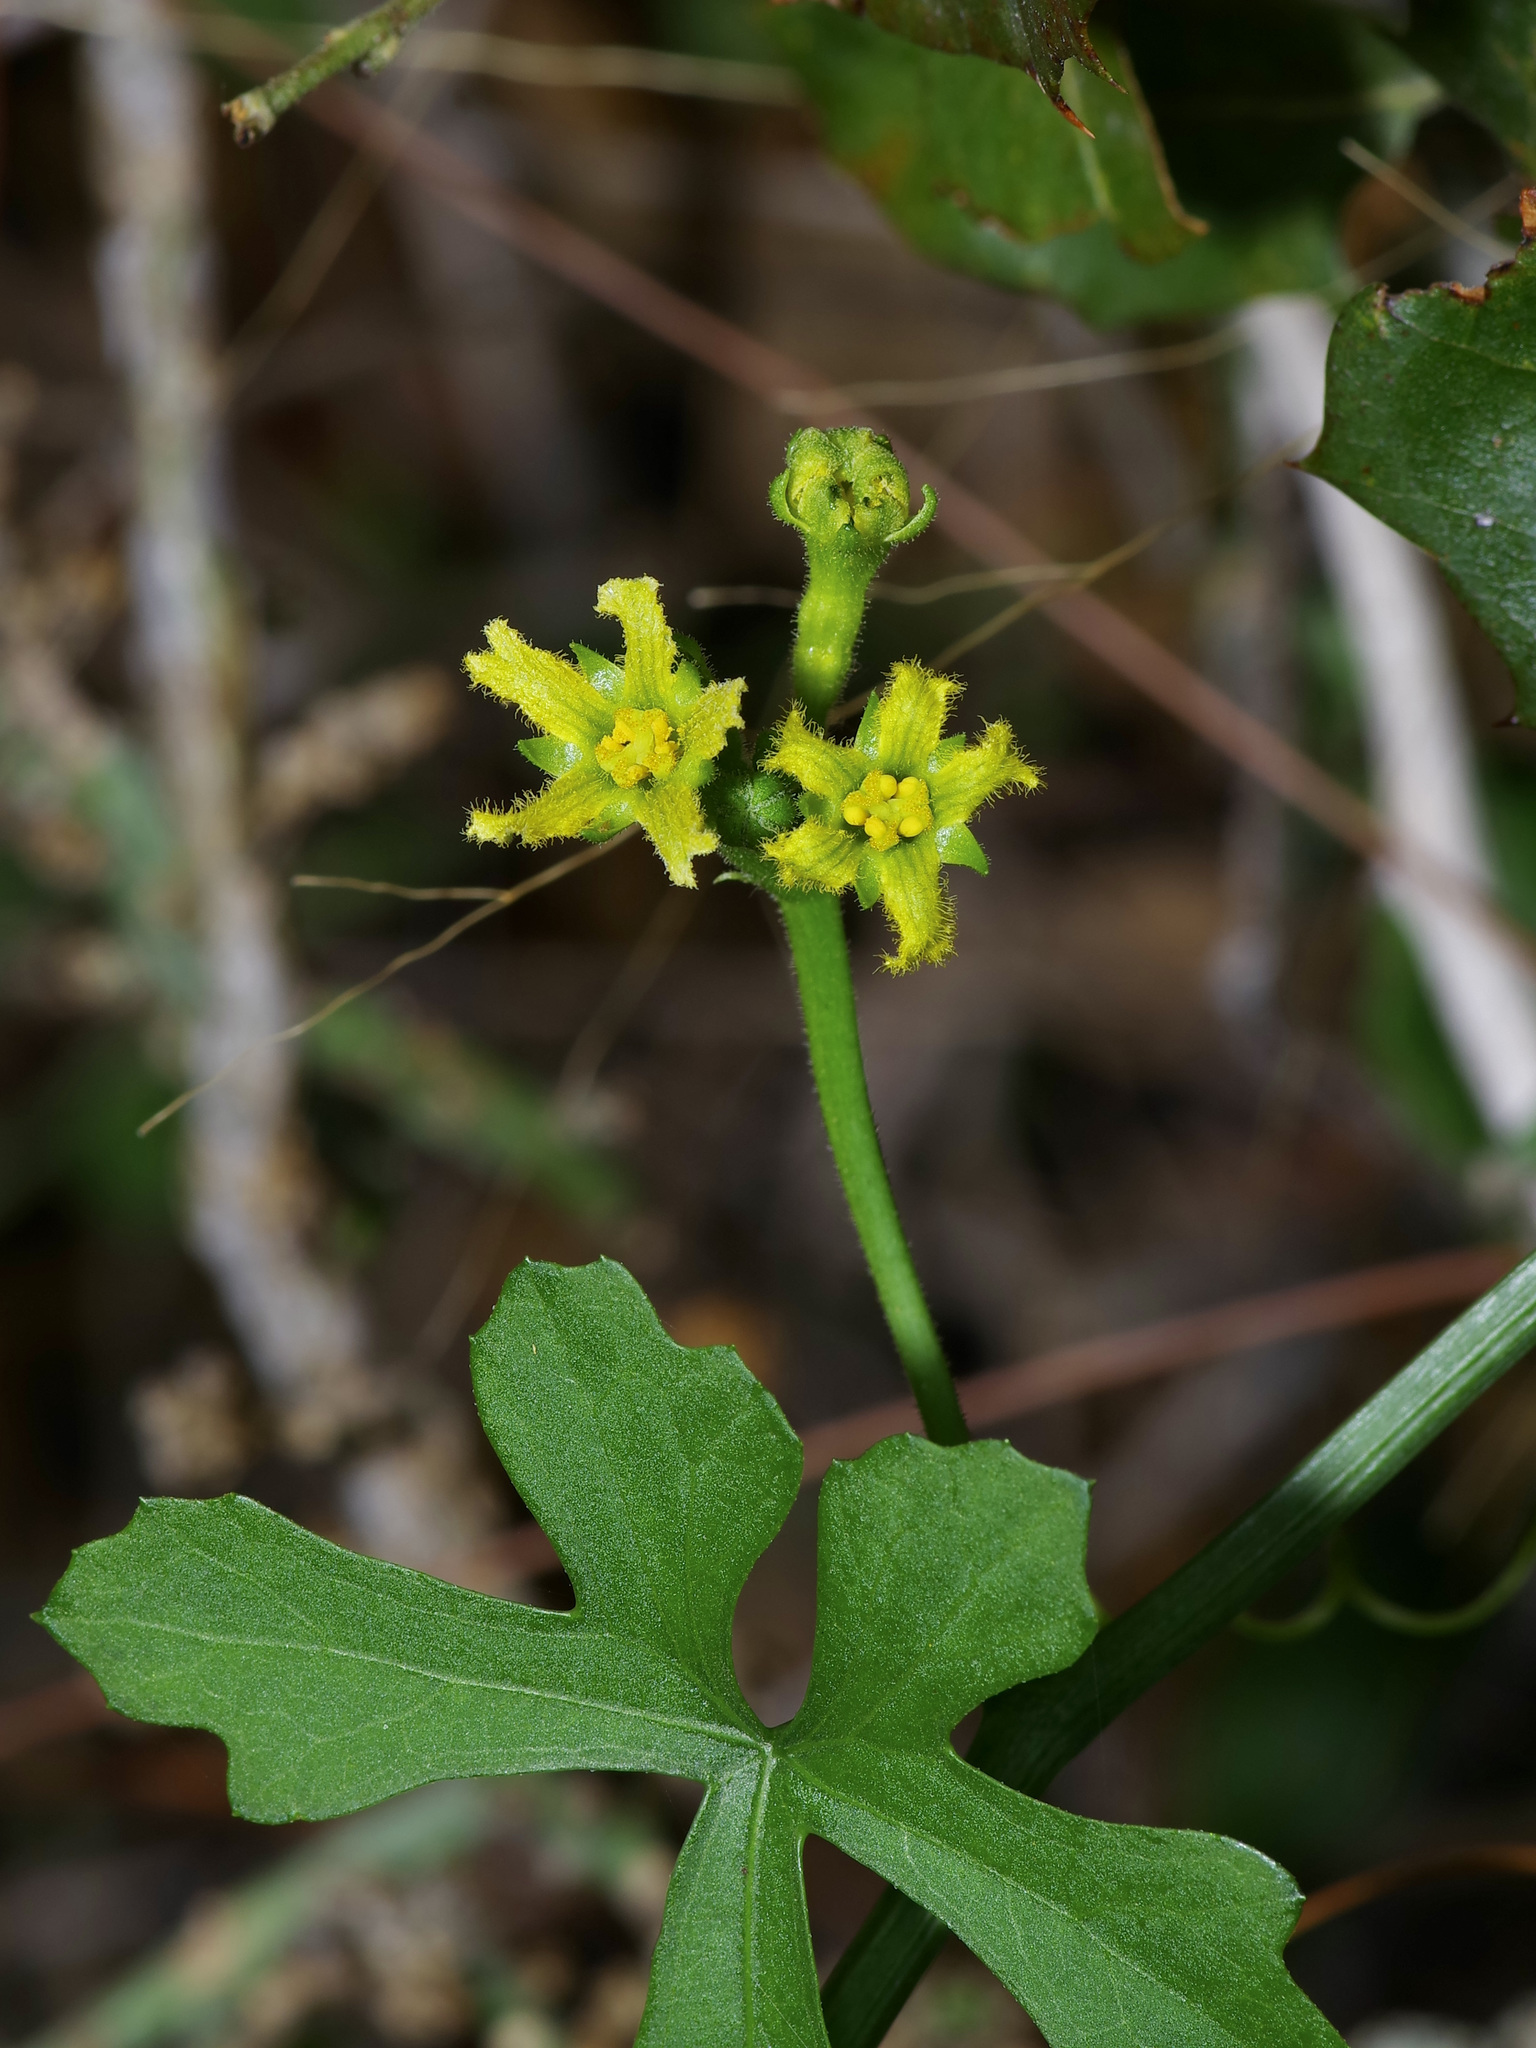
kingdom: Plantae
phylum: Tracheophyta
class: Magnoliopsida
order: Cucurbitales
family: Cucurbitaceae
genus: Ibervillea
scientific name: Ibervillea lindheimeri
